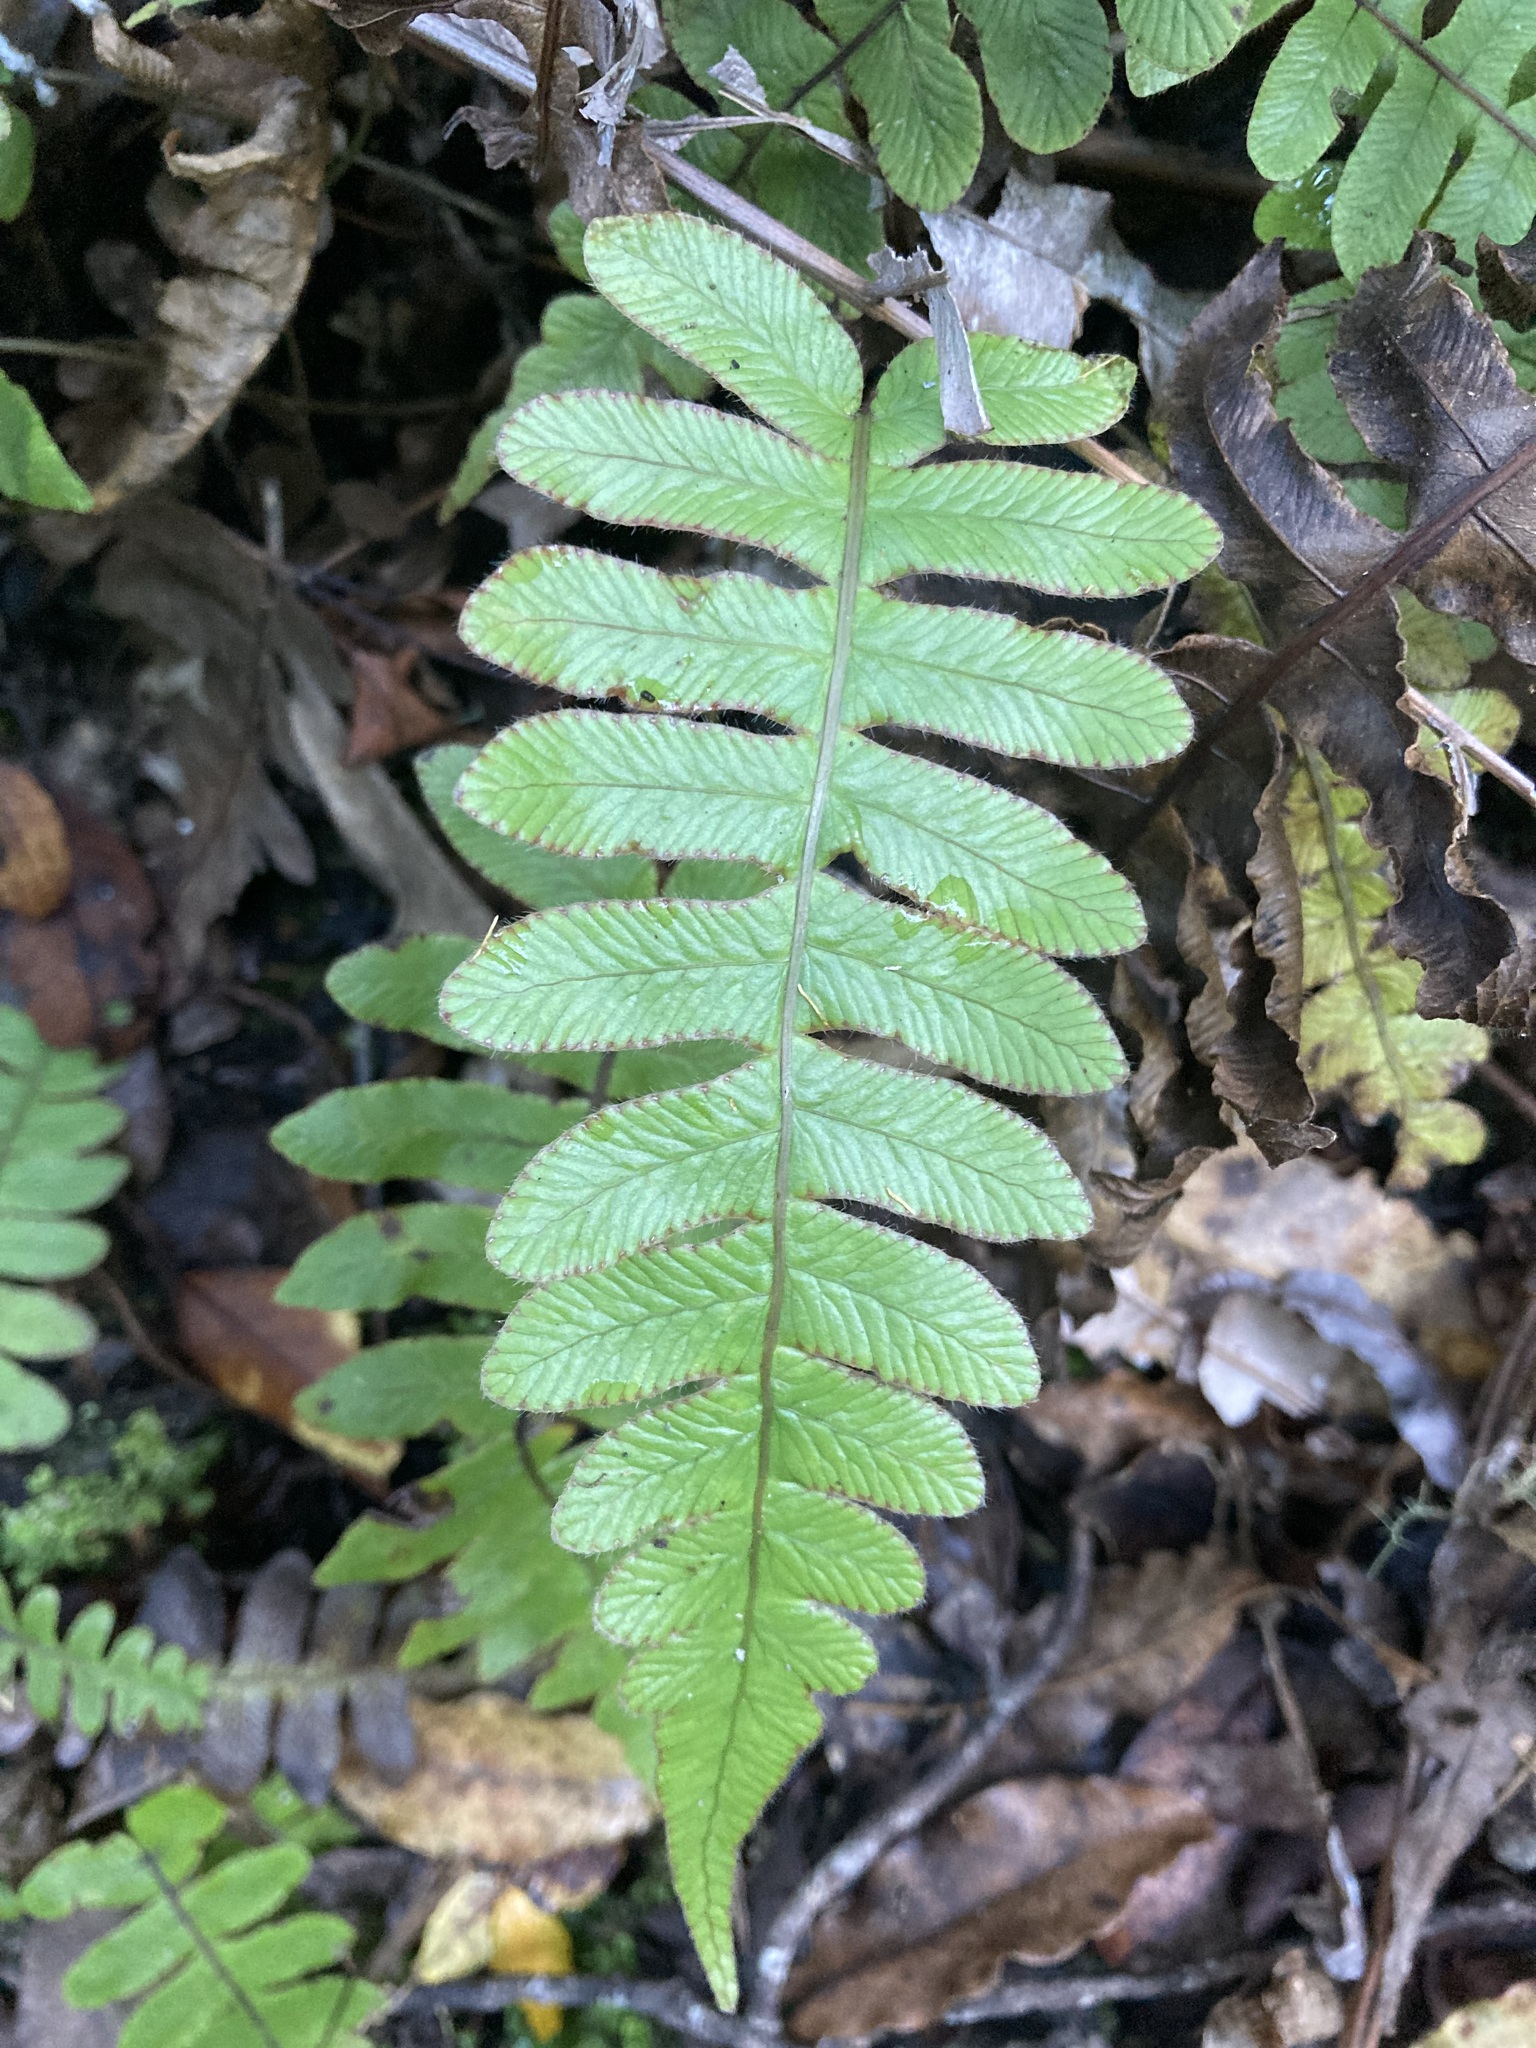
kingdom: Plantae
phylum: Tracheophyta
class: Polypodiopsida
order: Polypodiales
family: Blechnaceae
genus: Cranfillia
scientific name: Cranfillia deltoides
